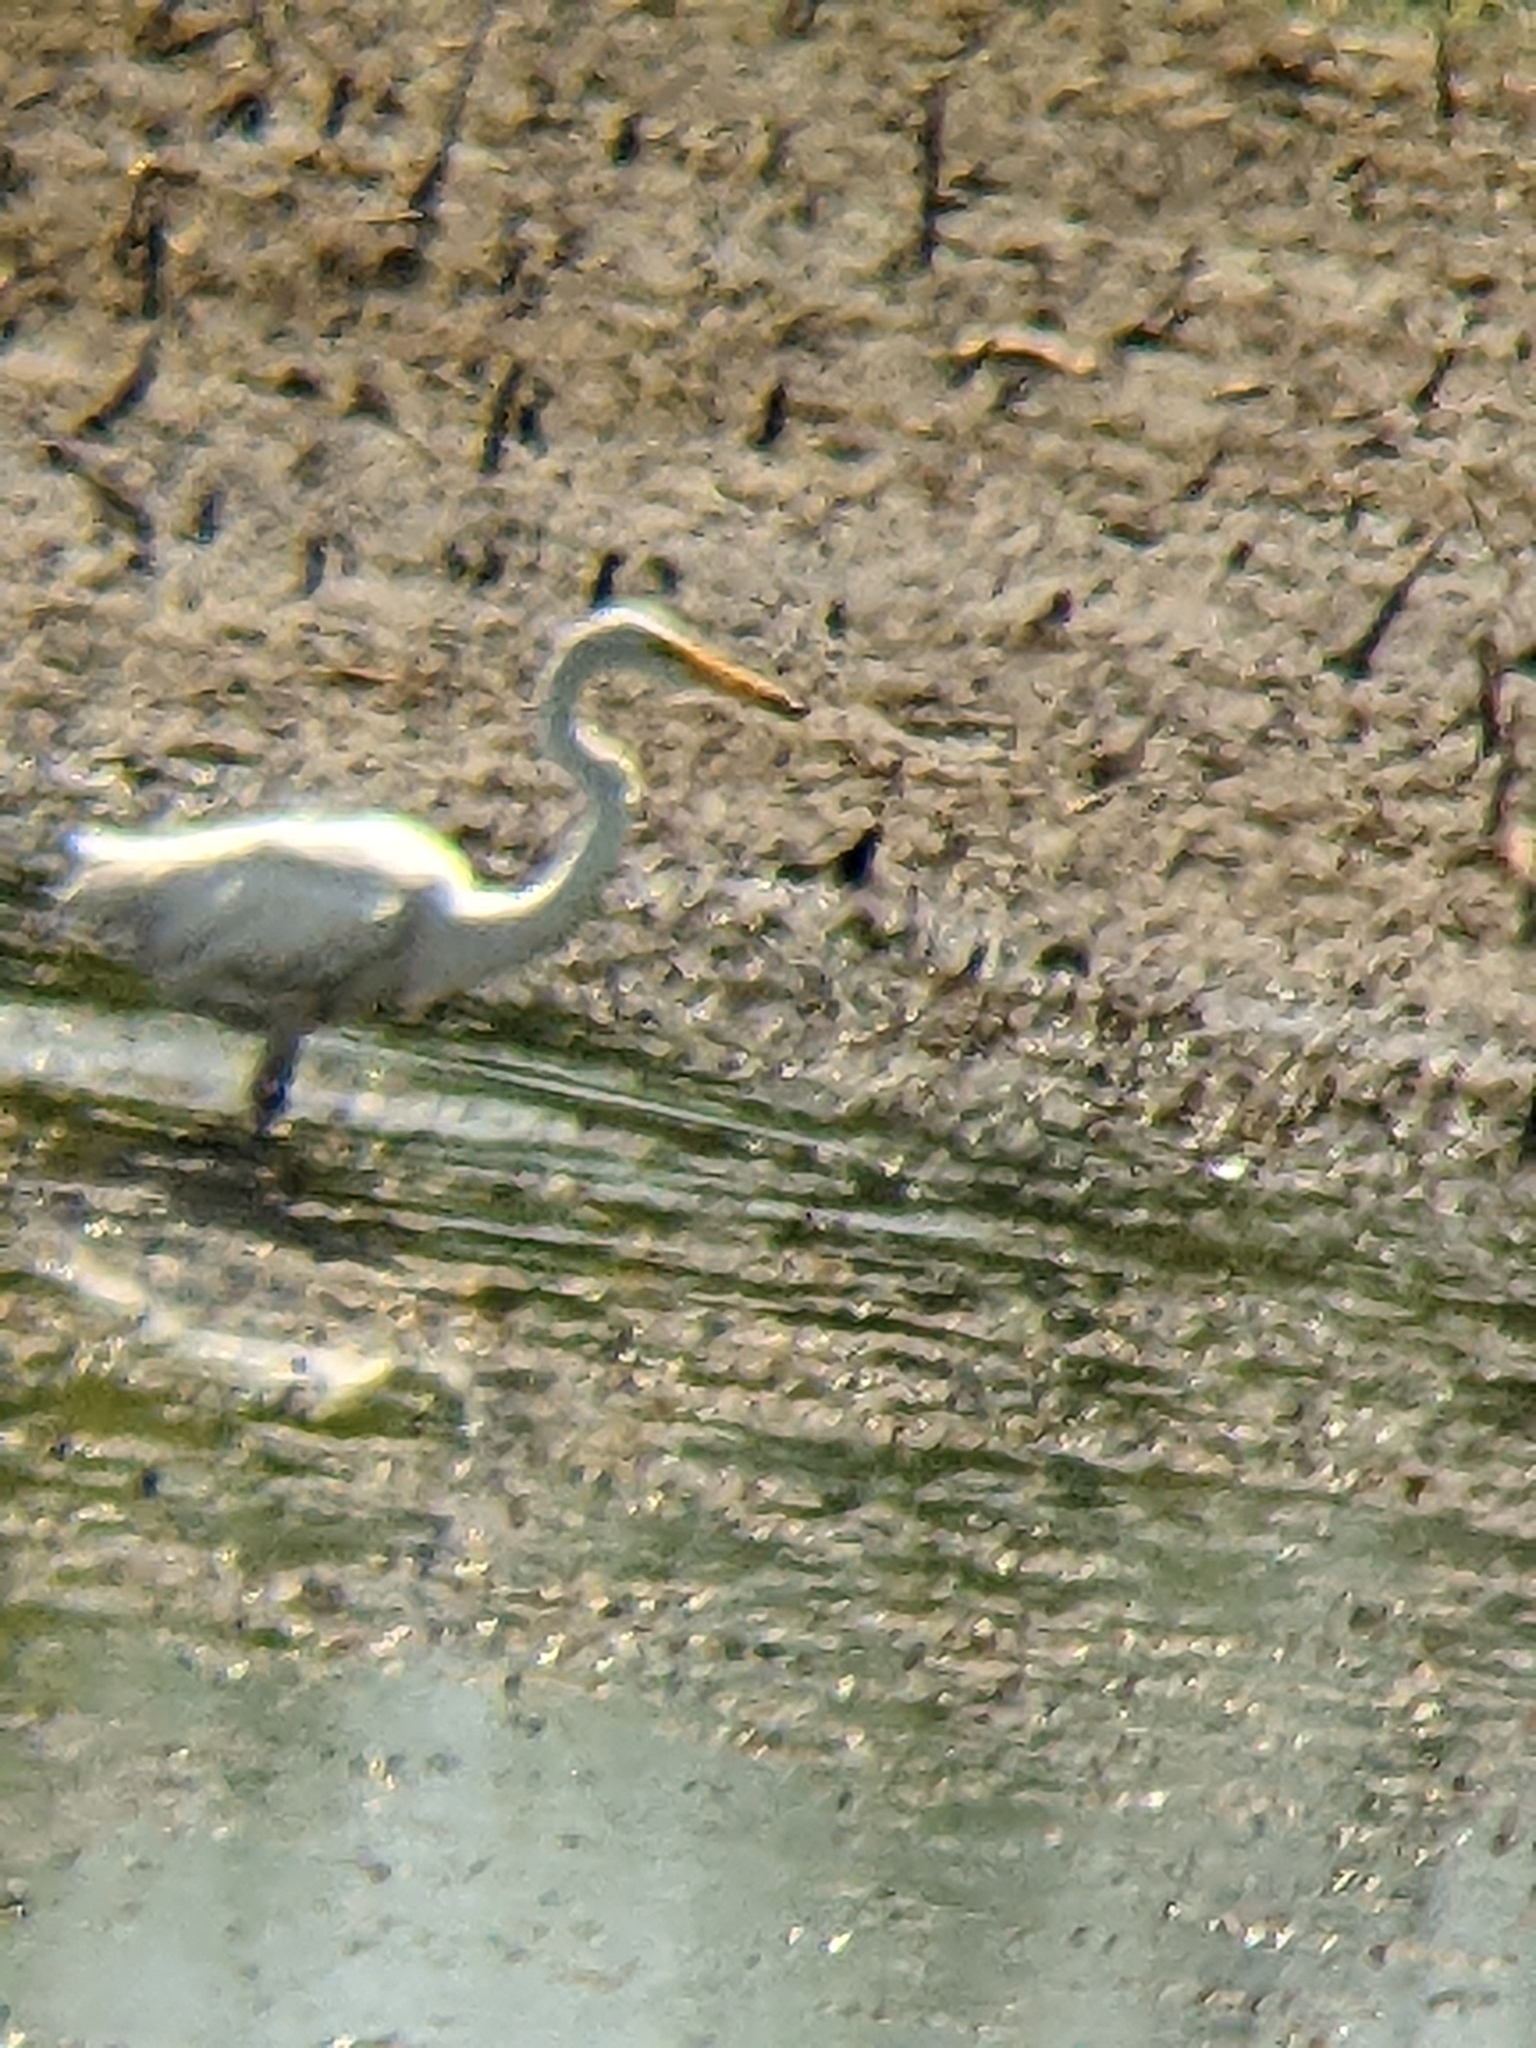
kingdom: Animalia
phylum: Chordata
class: Aves
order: Pelecaniformes
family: Ardeidae
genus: Ardea
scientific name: Ardea alba
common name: Great egret
